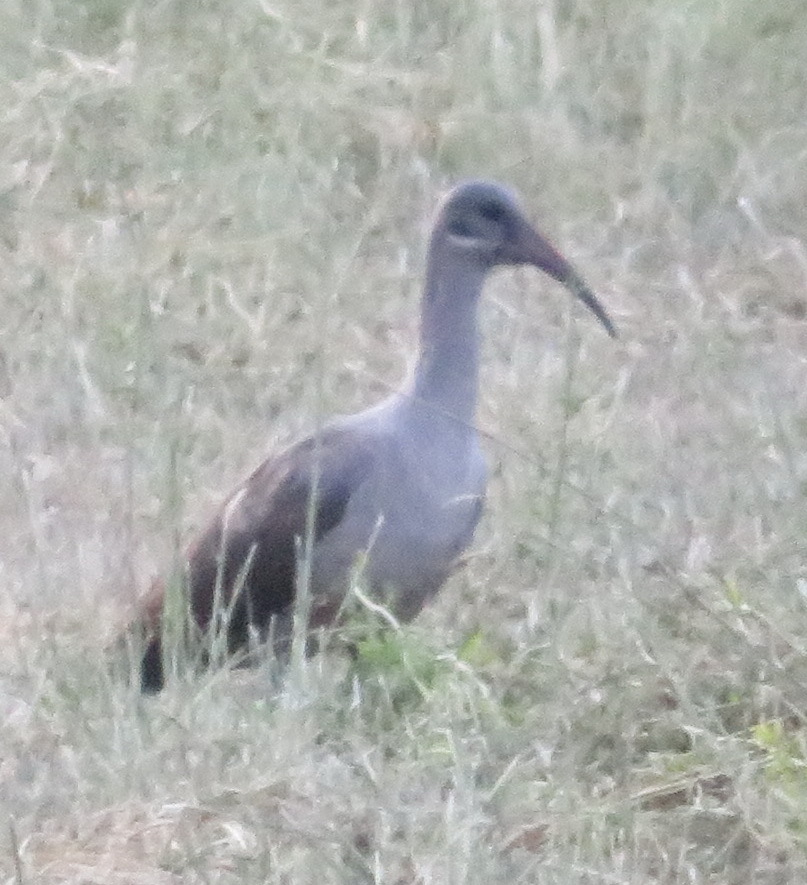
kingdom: Animalia
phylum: Chordata
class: Aves
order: Pelecaniformes
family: Threskiornithidae
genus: Bostrychia
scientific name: Bostrychia hagedash
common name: Hadada ibis
